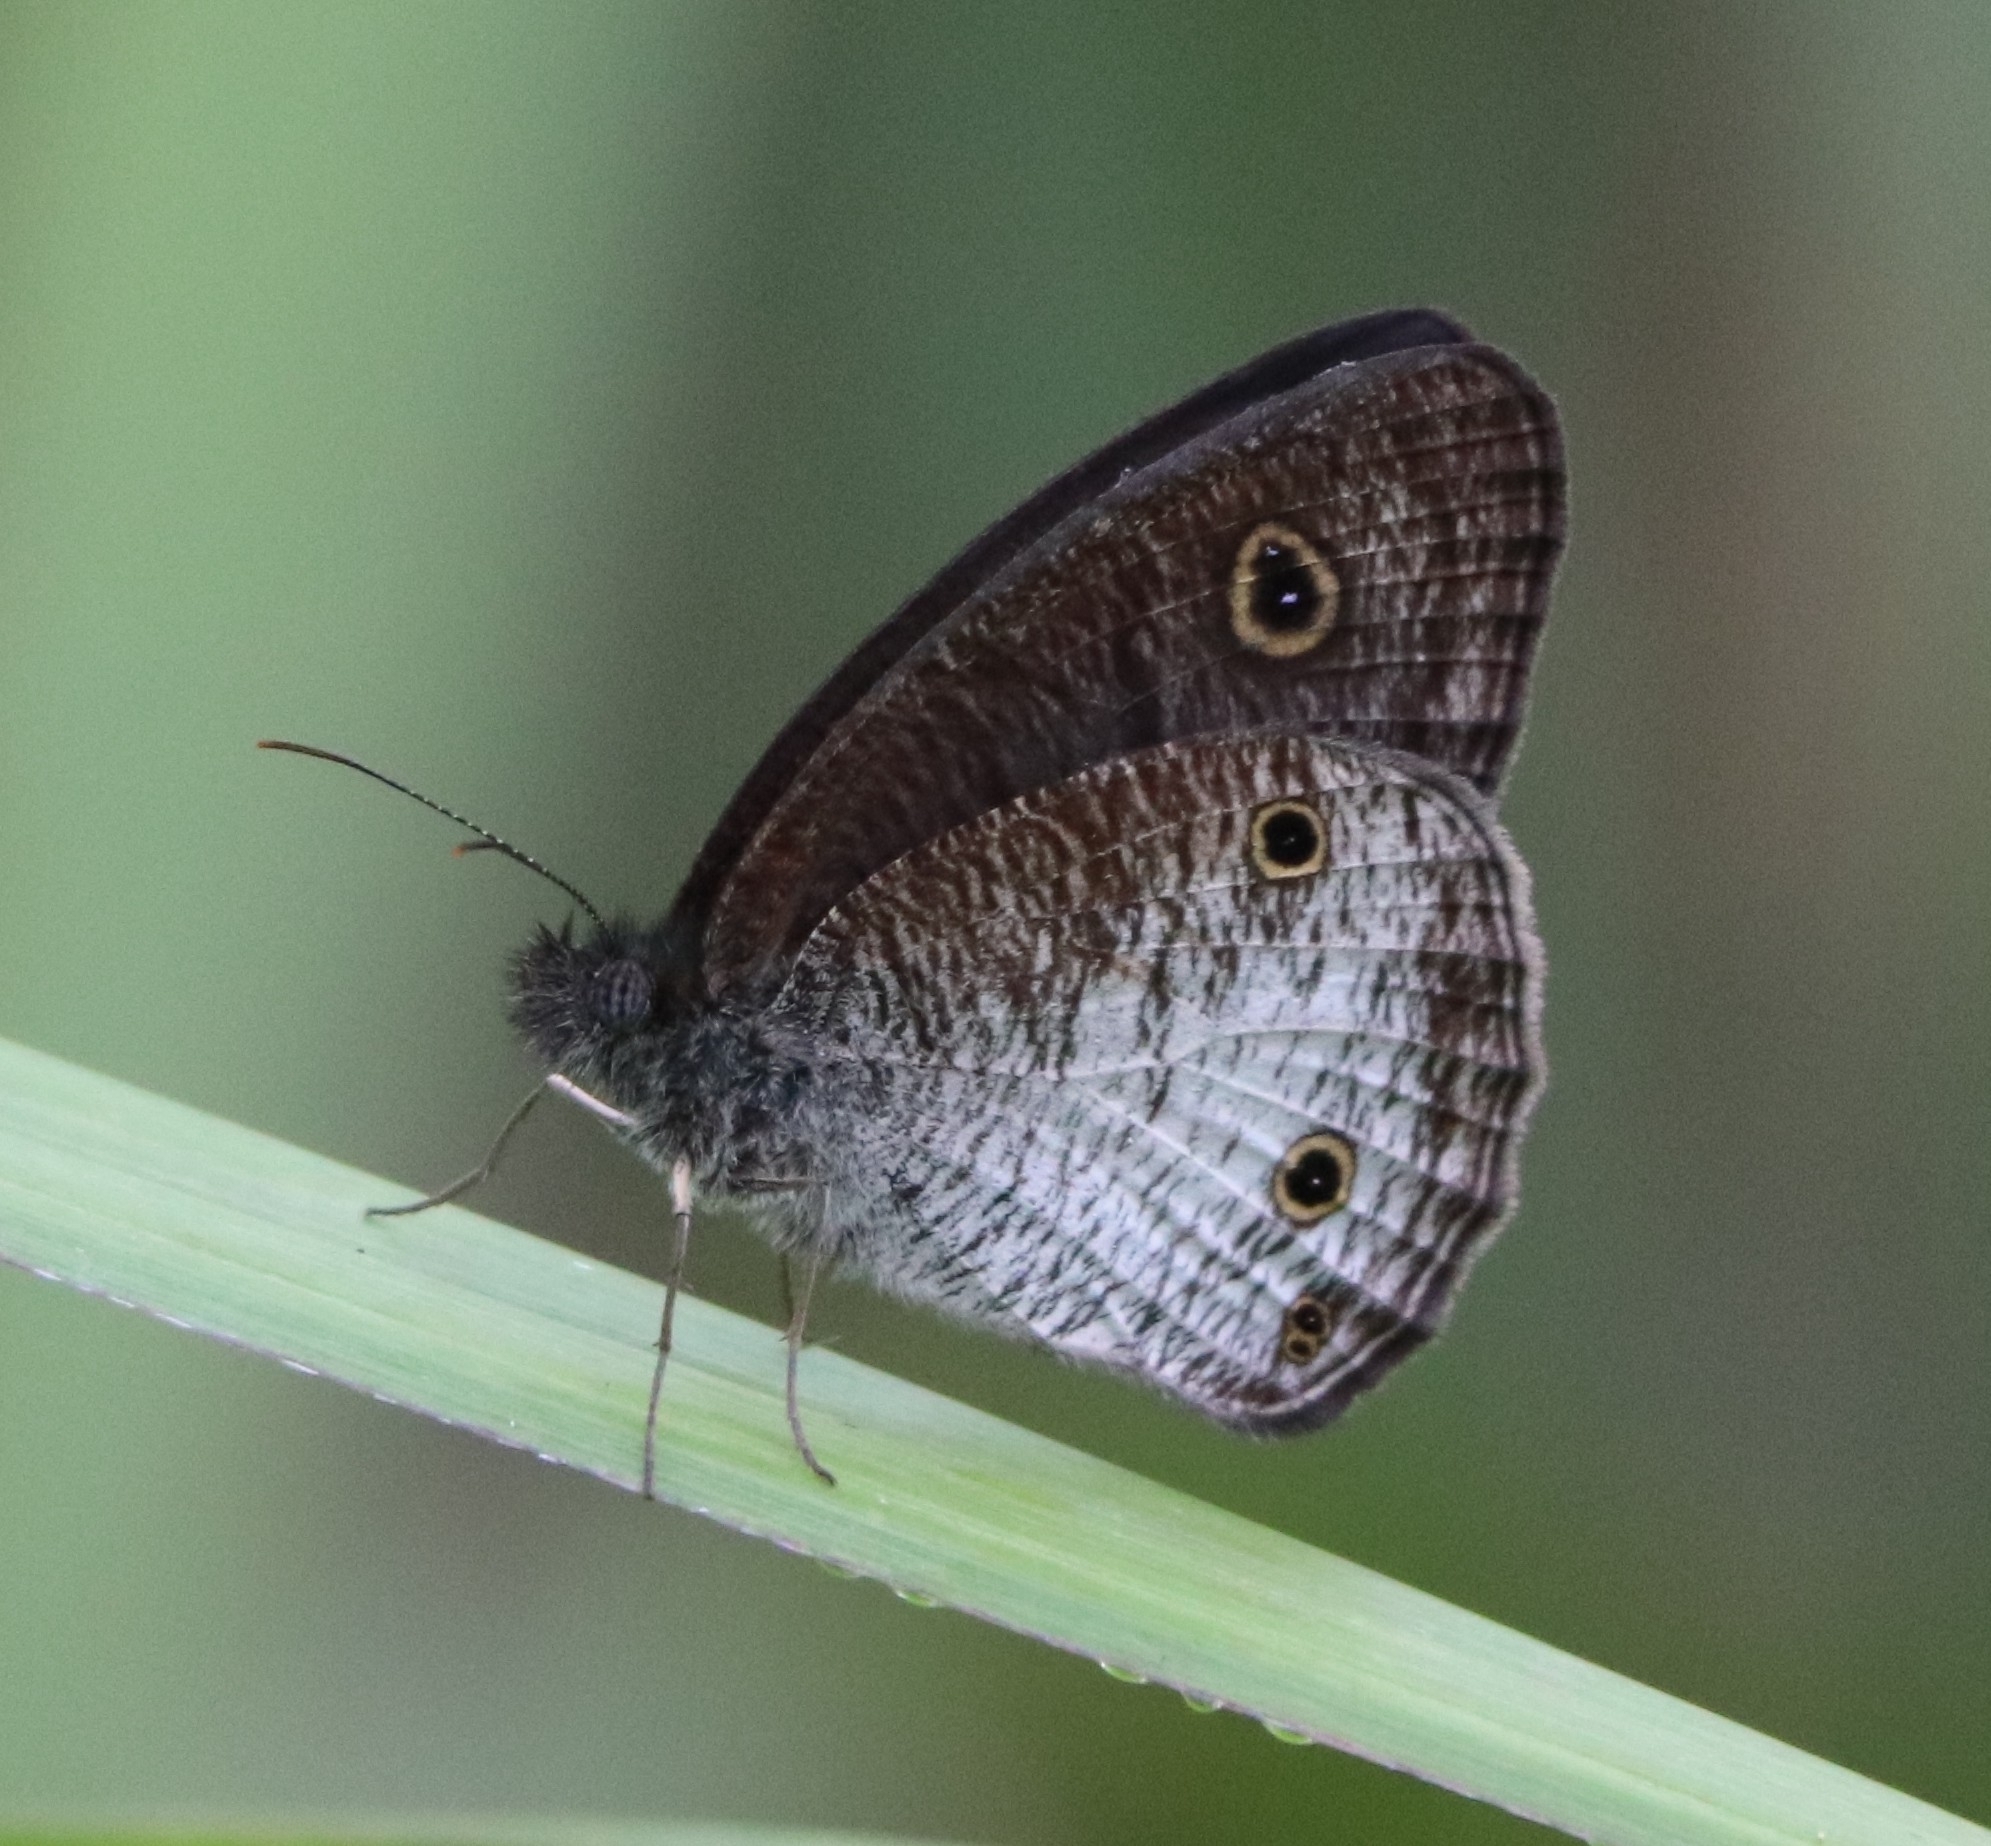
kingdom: Animalia
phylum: Arthropoda
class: Insecta
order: Lepidoptera
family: Nymphalidae
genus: Ypthima
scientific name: Ypthima pandocus
